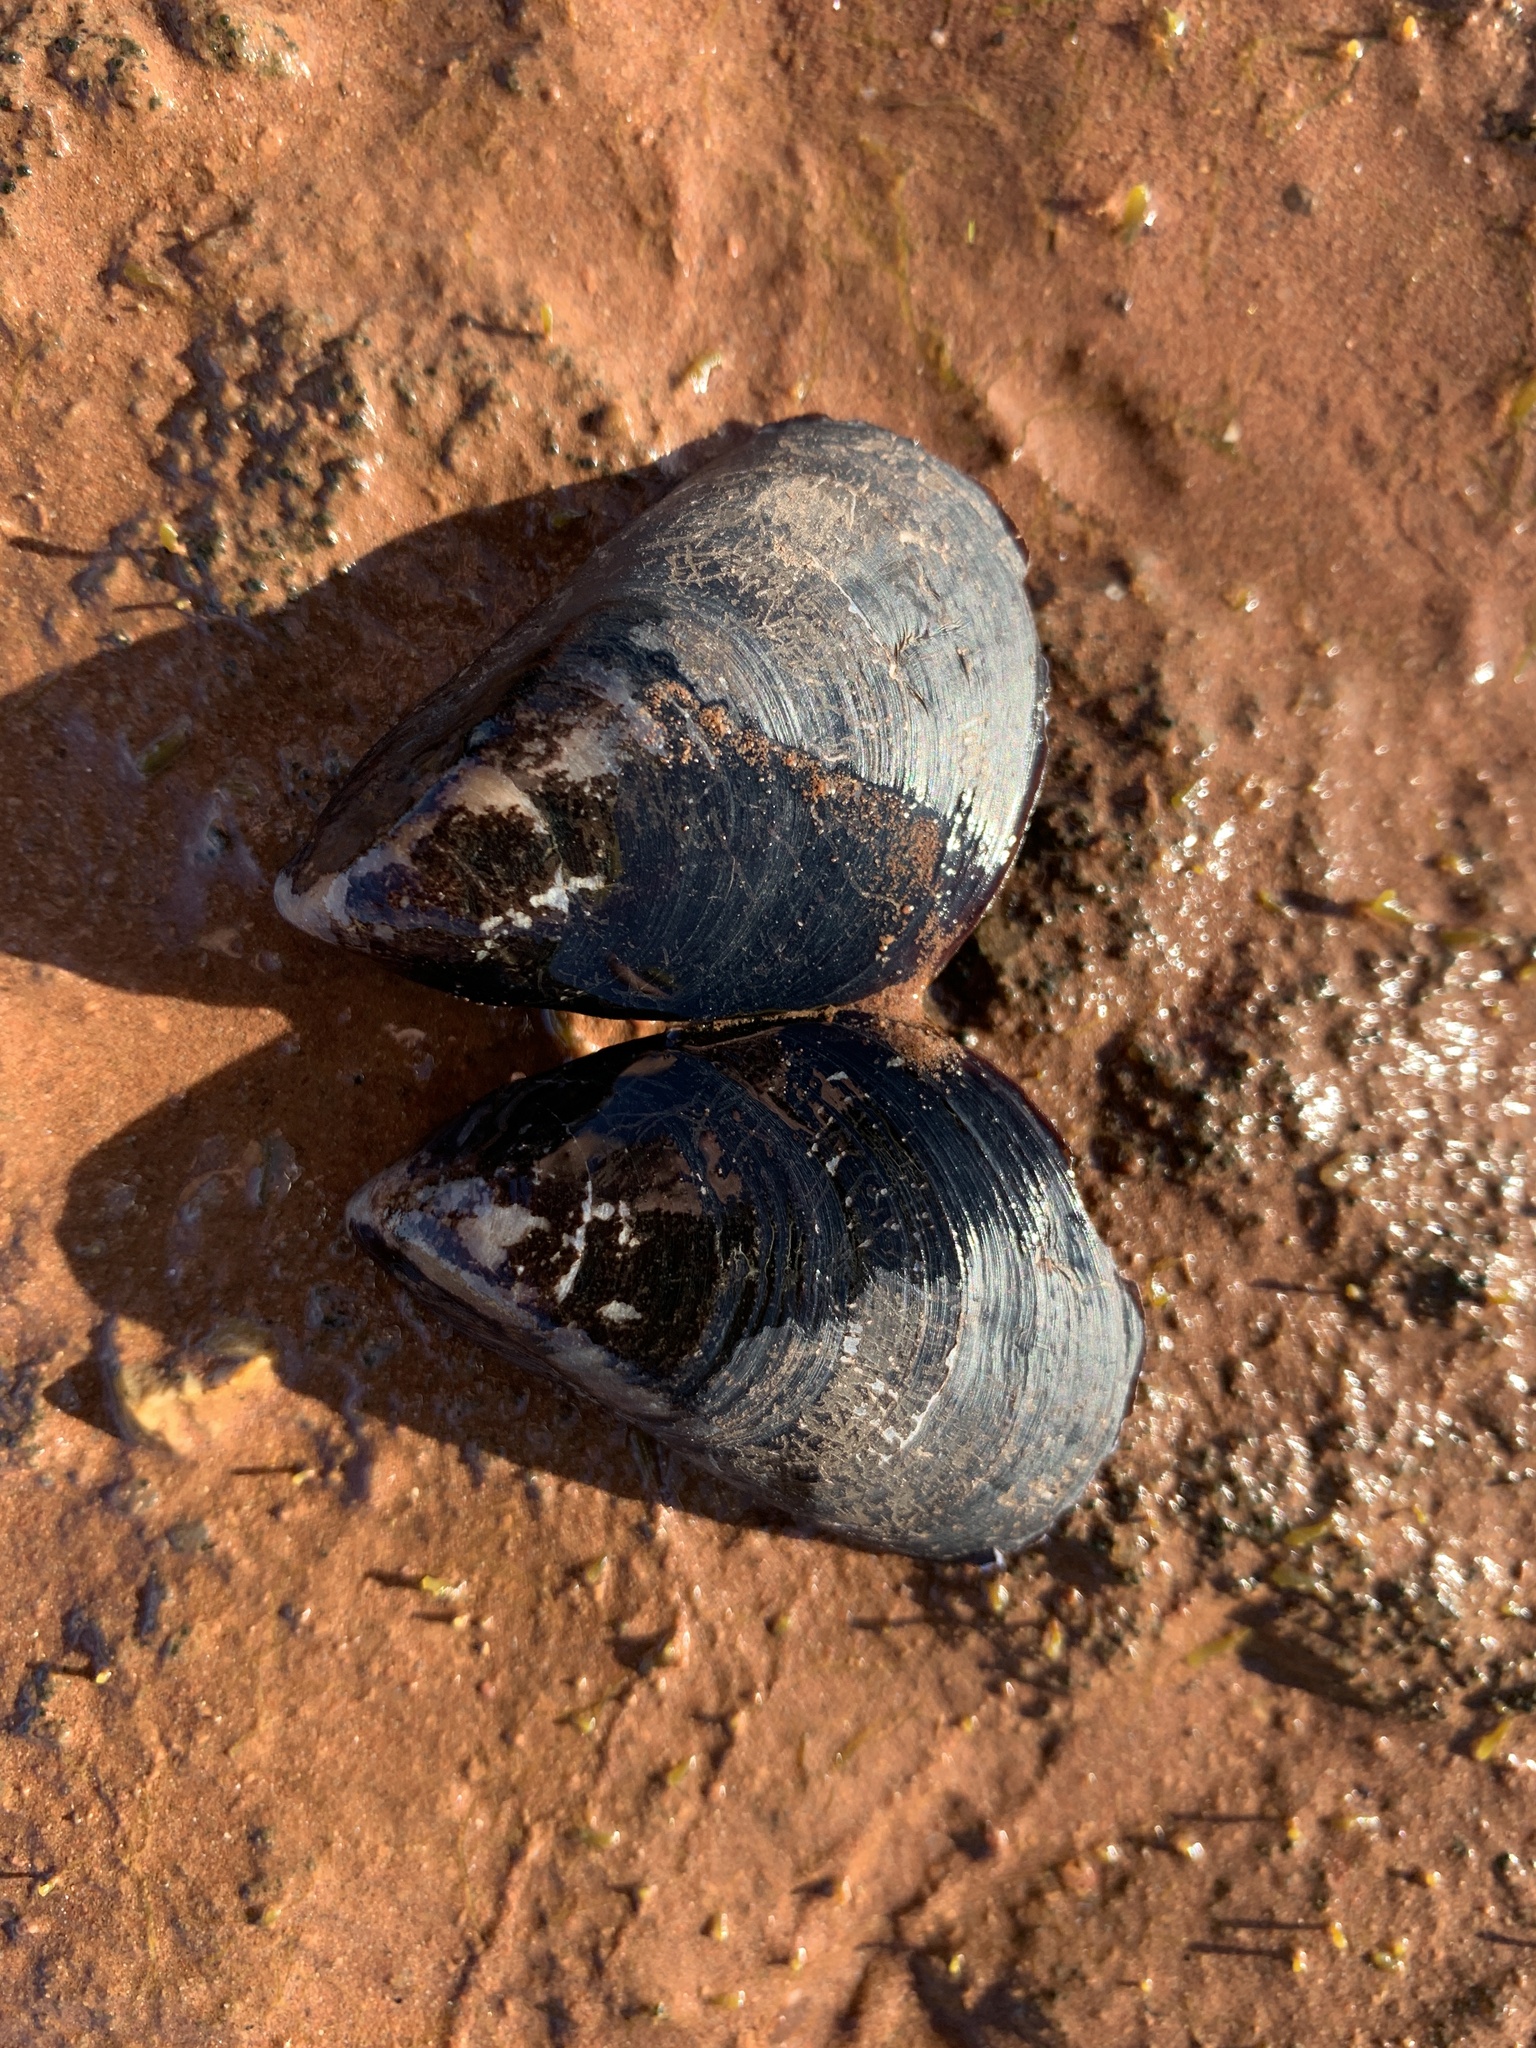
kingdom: Animalia
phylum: Mollusca
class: Bivalvia
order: Mytilida
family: Mytilidae
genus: Mytilus
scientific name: Mytilus
